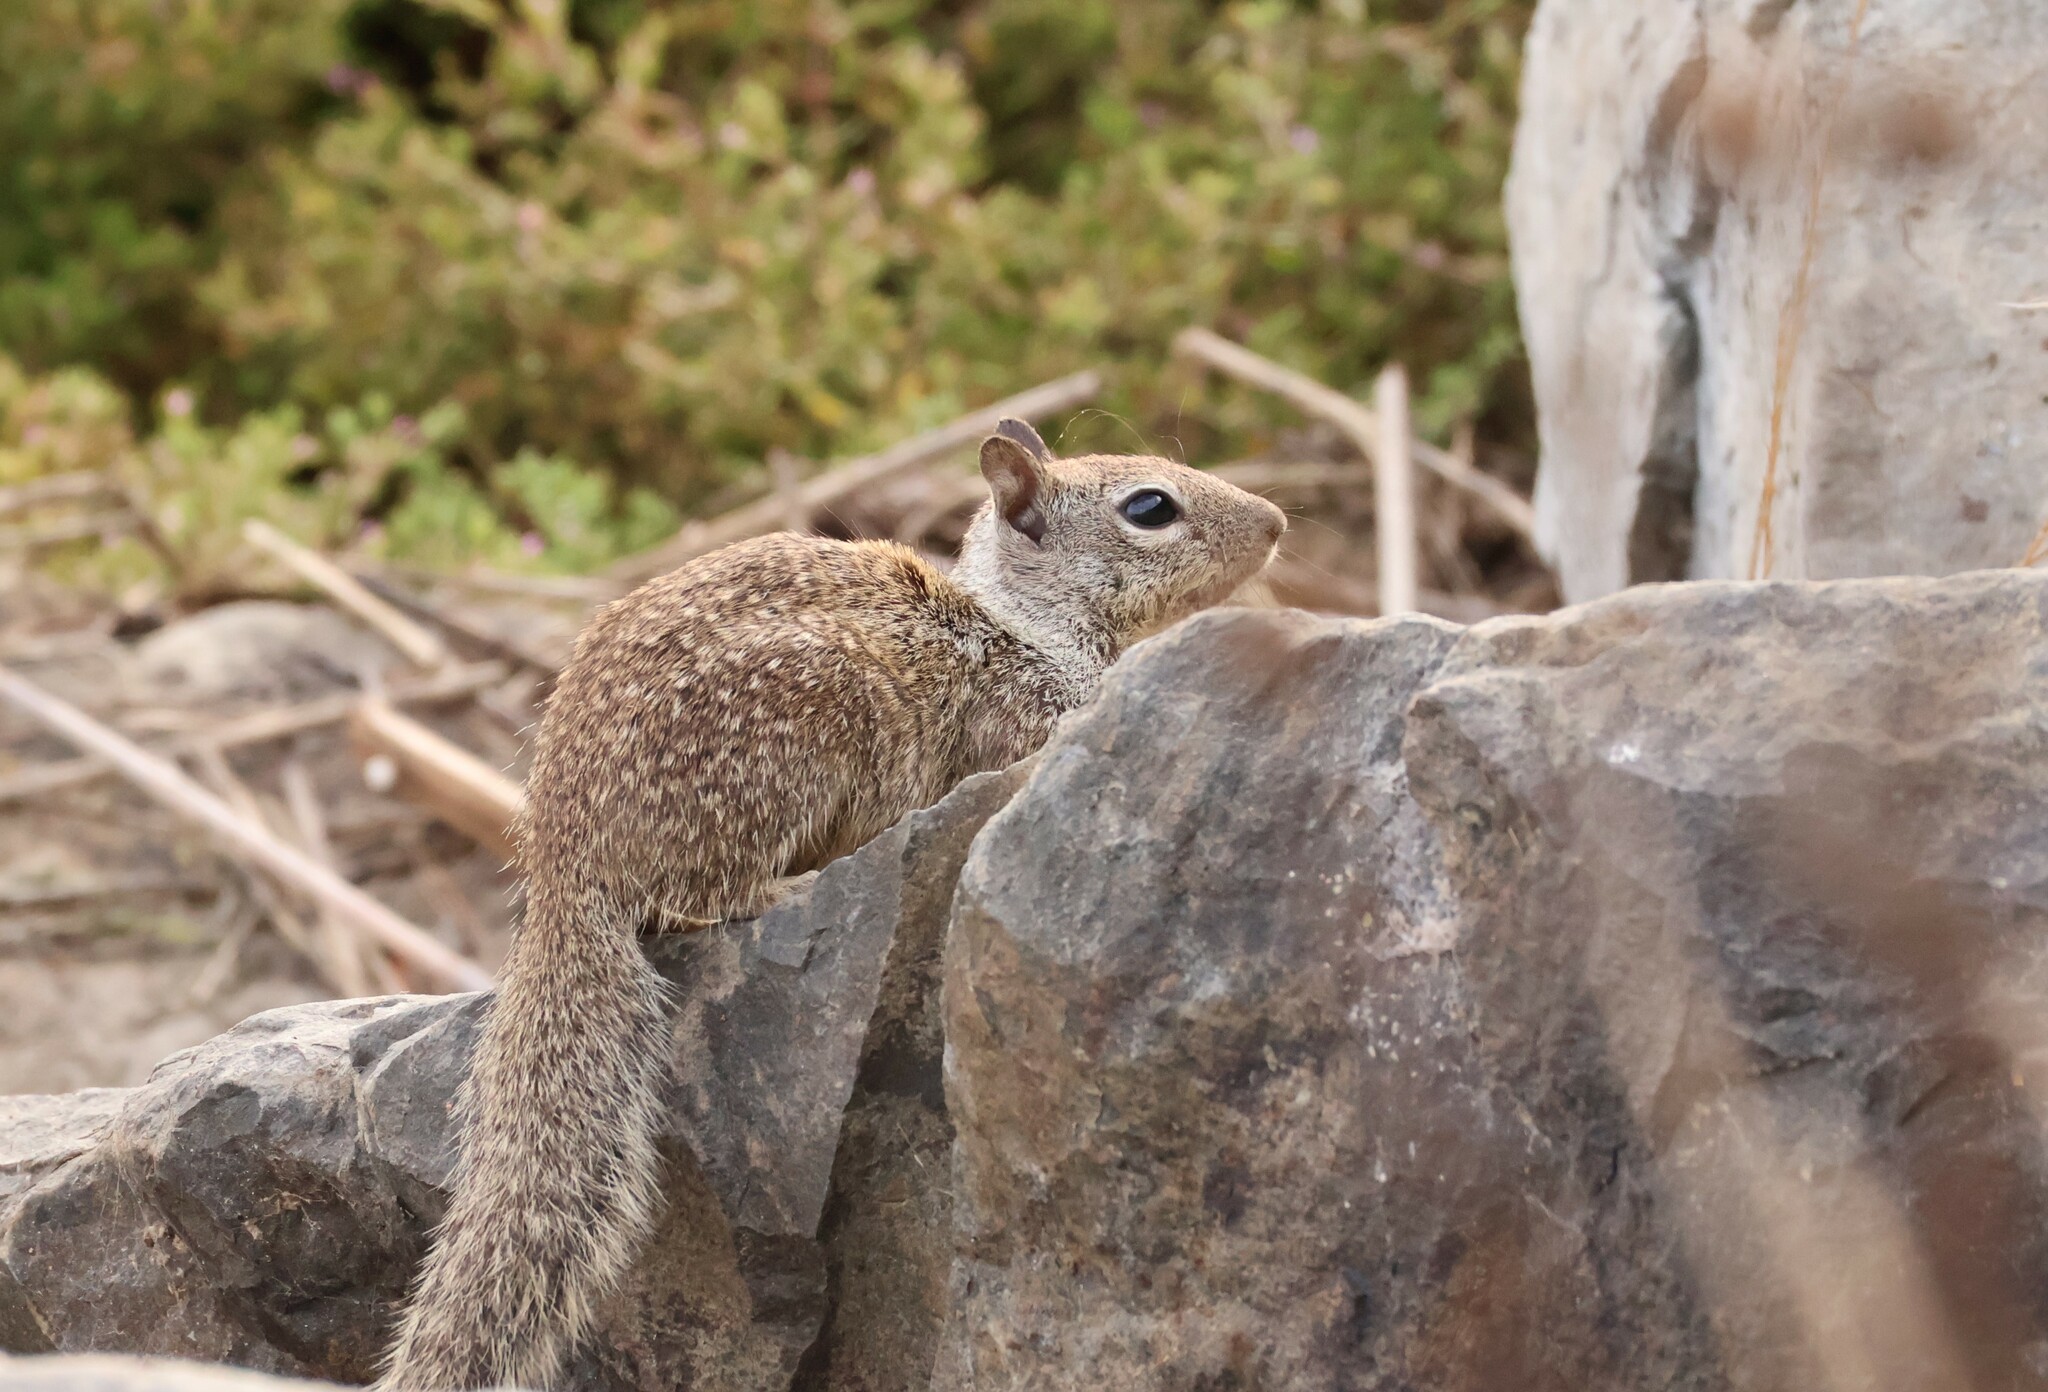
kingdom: Animalia
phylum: Chordata
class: Mammalia
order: Rodentia
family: Sciuridae
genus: Otospermophilus
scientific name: Otospermophilus beecheyi
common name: California ground squirrel
